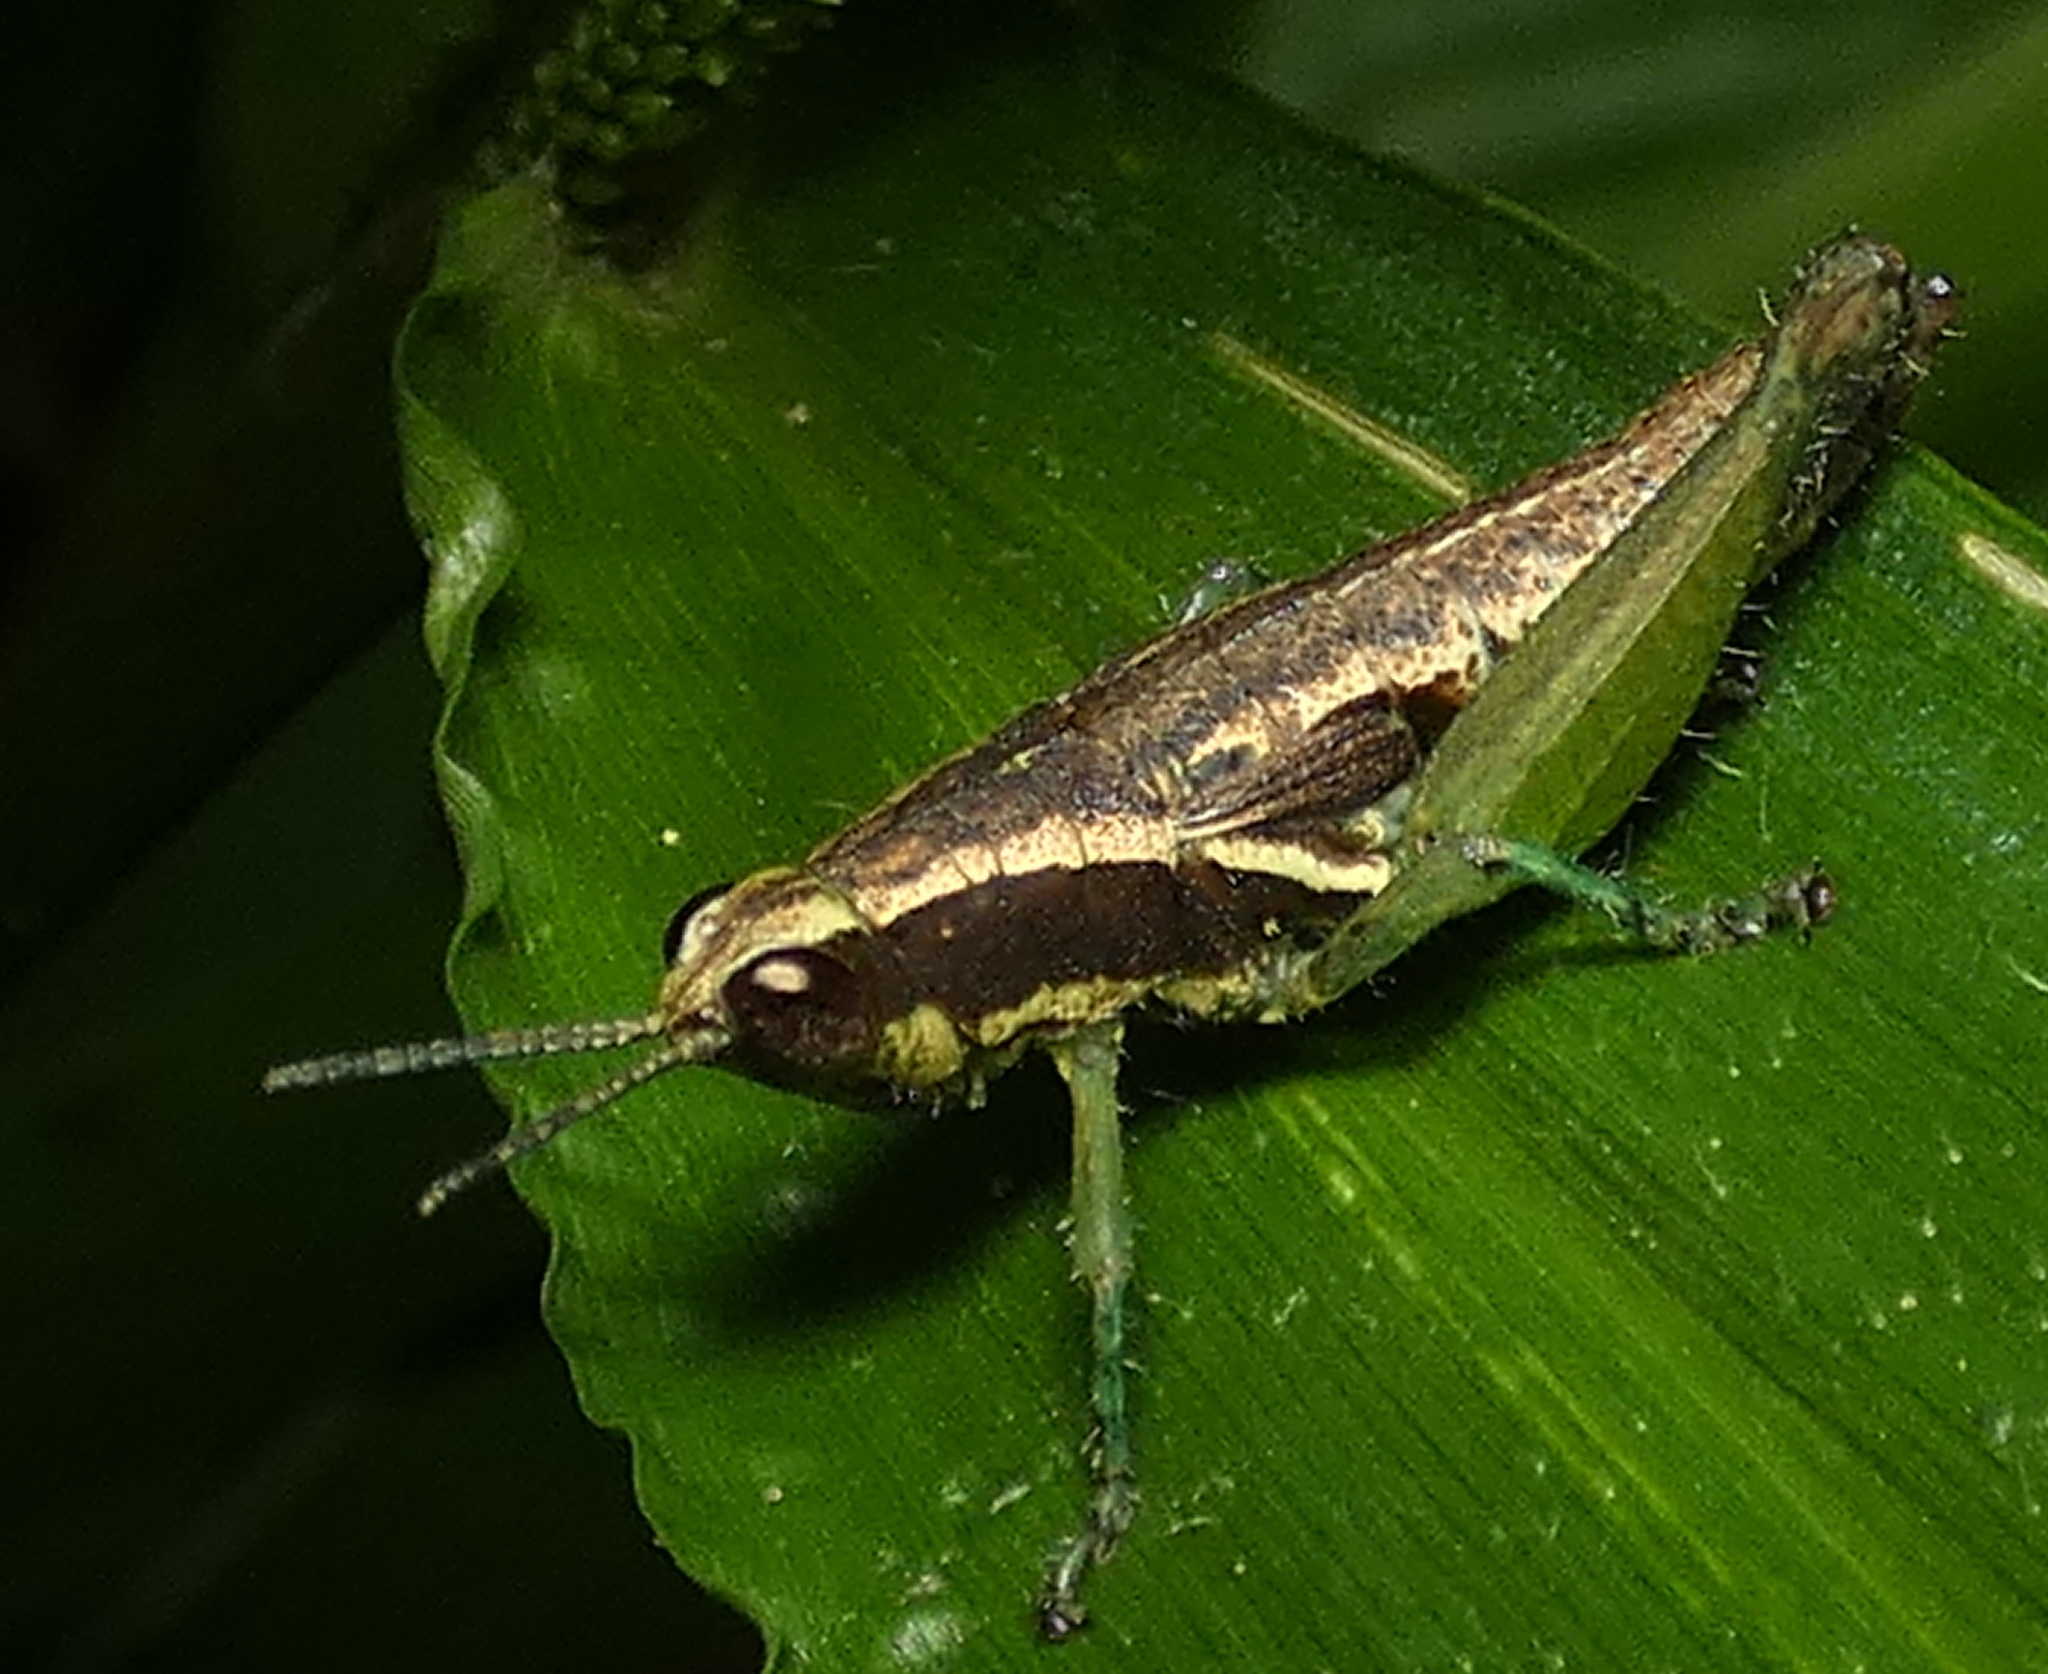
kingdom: Animalia
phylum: Arthropoda
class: Insecta
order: Orthoptera
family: Acrididae
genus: Roppacris
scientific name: Roppacris longicerca
